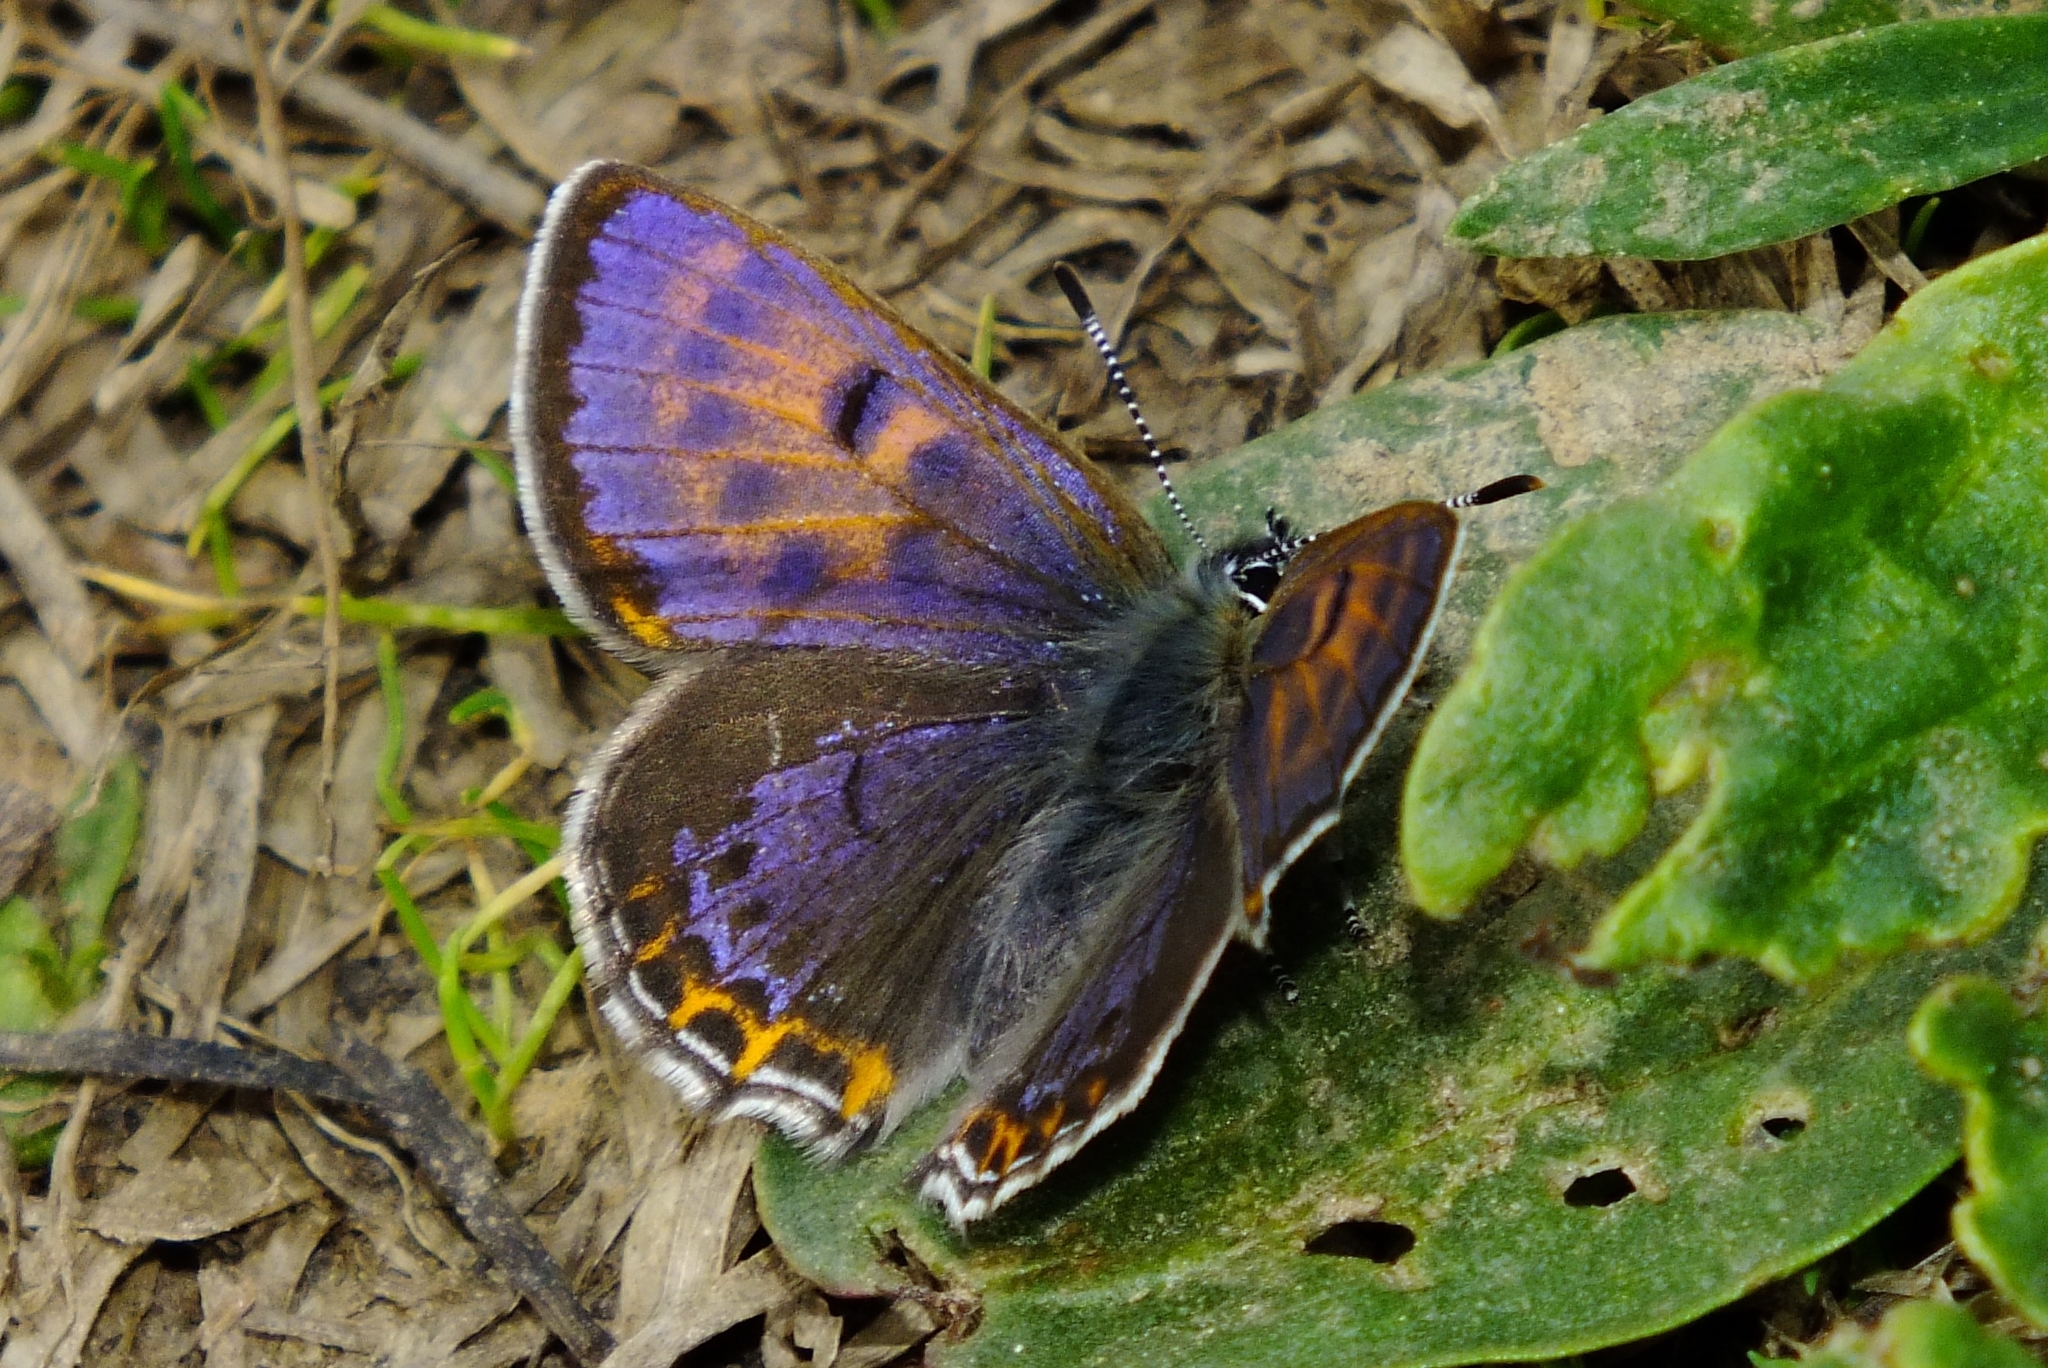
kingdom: Animalia
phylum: Arthropoda
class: Insecta
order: Lepidoptera
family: Lycaenidae
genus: Helleia
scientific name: Helleia helle
